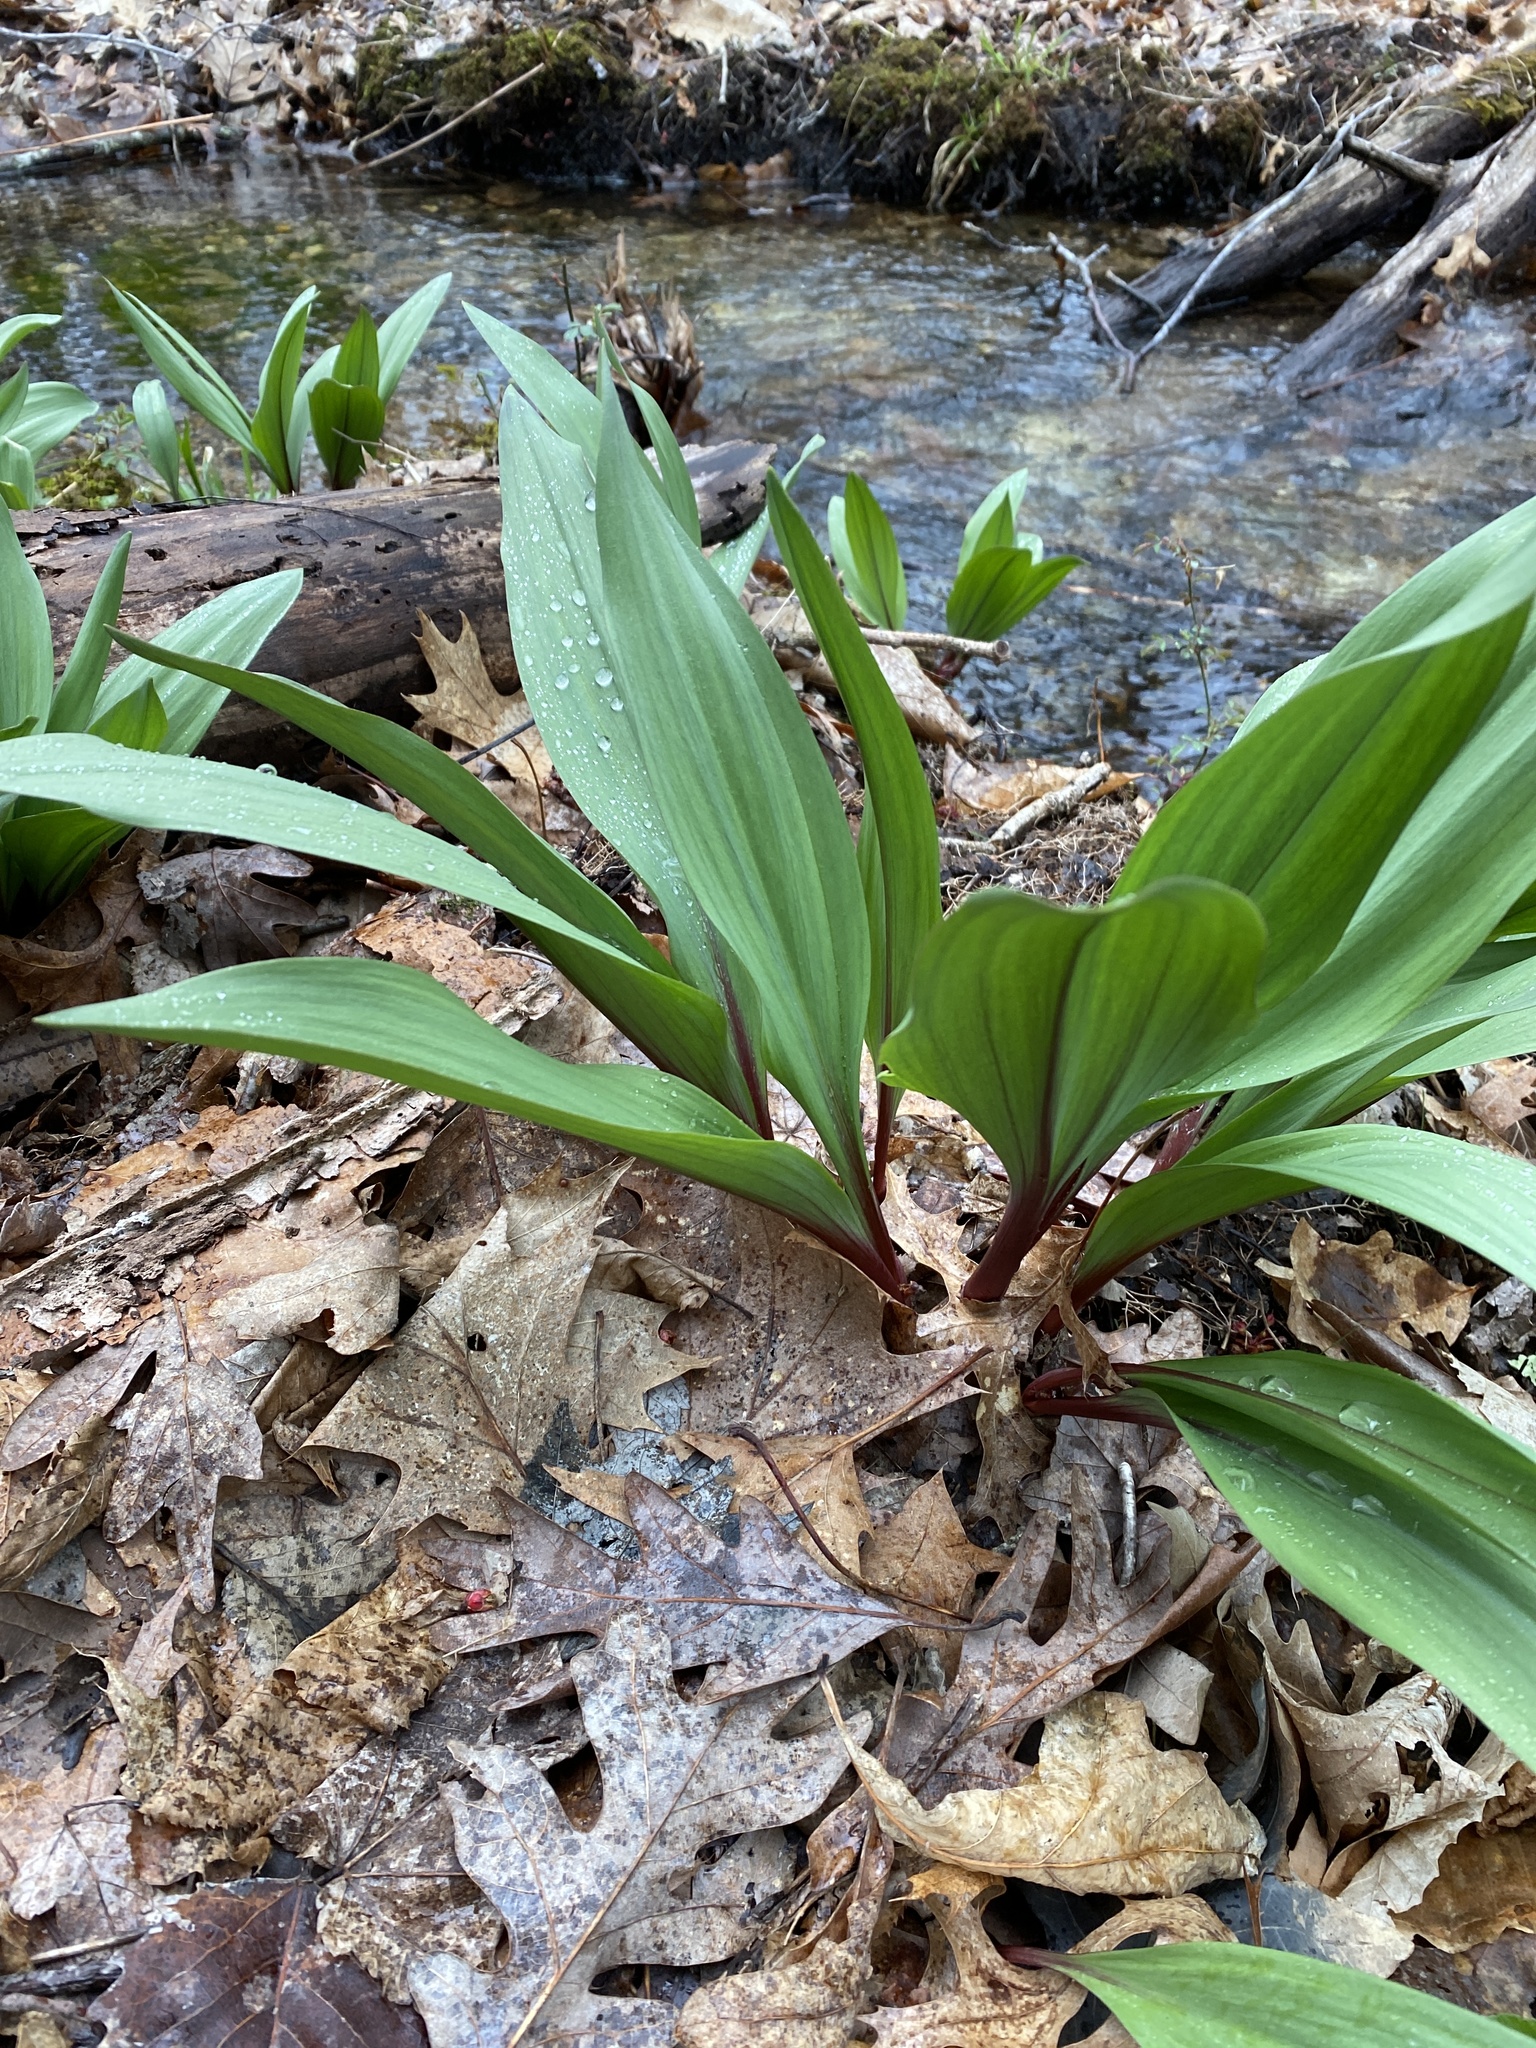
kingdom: Plantae
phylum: Tracheophyta
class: Liliopsida
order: Asparagales
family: Amaryllidaceae
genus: Allium
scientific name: Allium tricoccum
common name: Ramp
